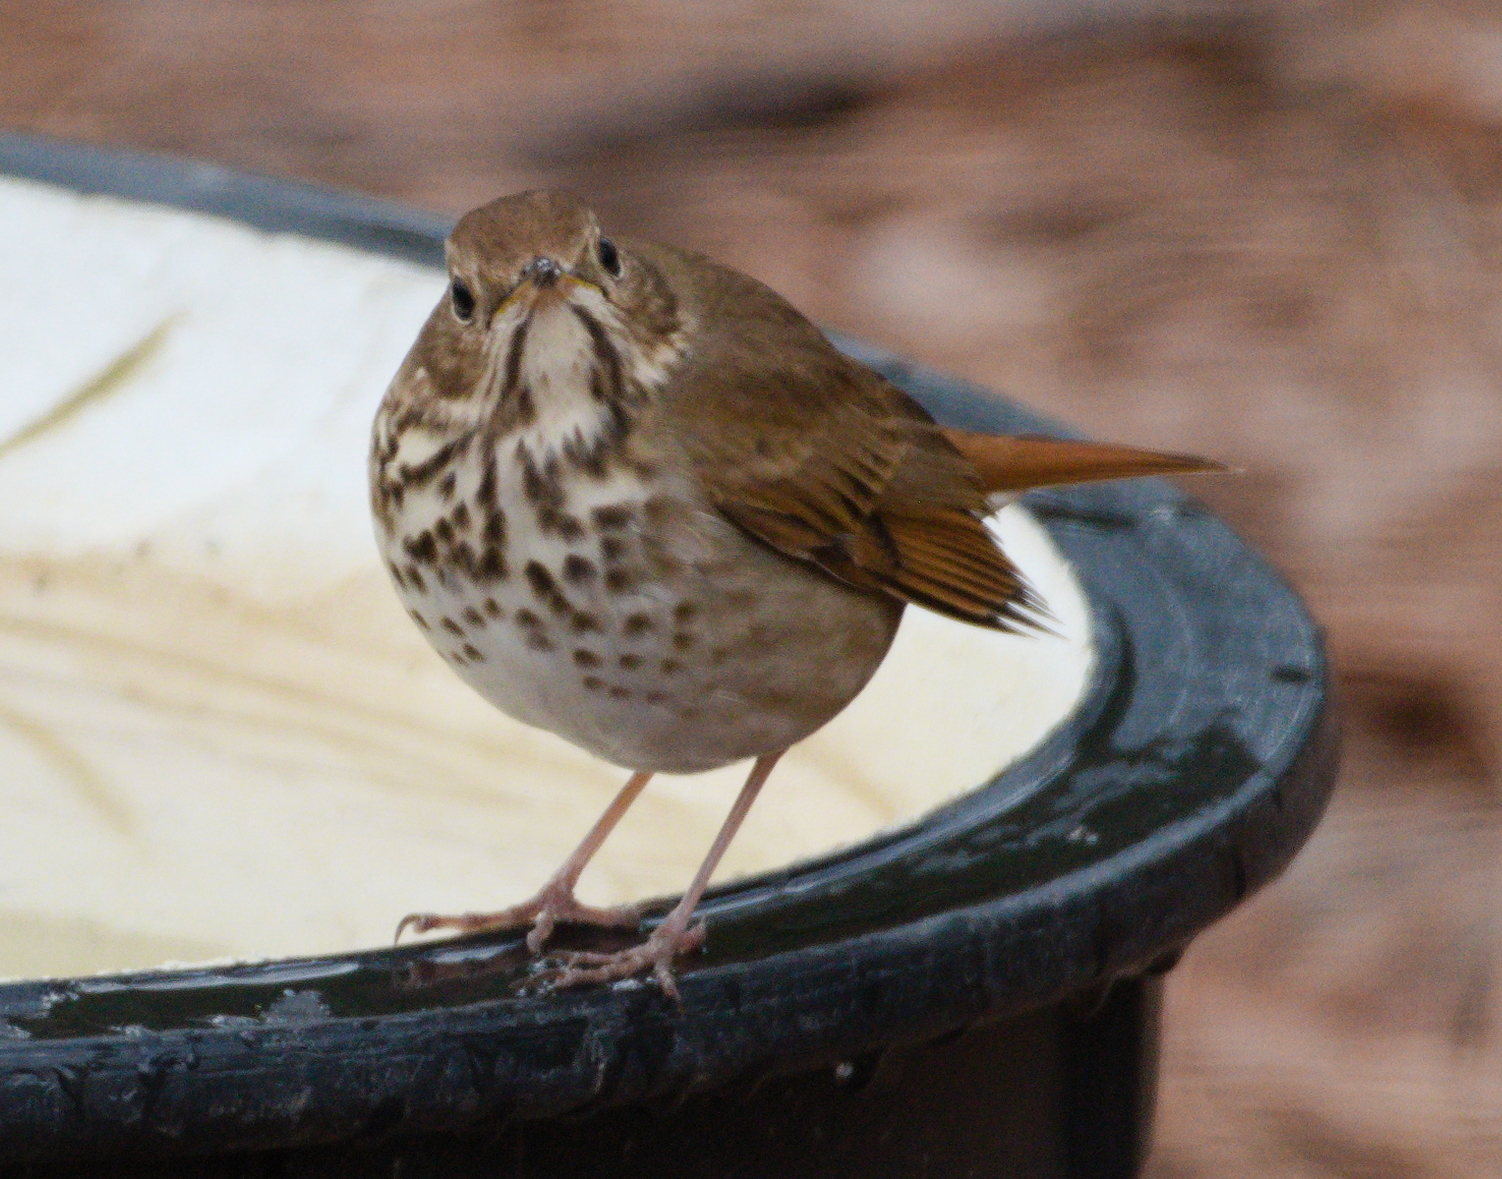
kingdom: Animalia
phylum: Chordata
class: Aves
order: Passeriformes
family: Turdidae
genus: Catharus
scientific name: Catharus guttatus
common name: Hermit thrush
